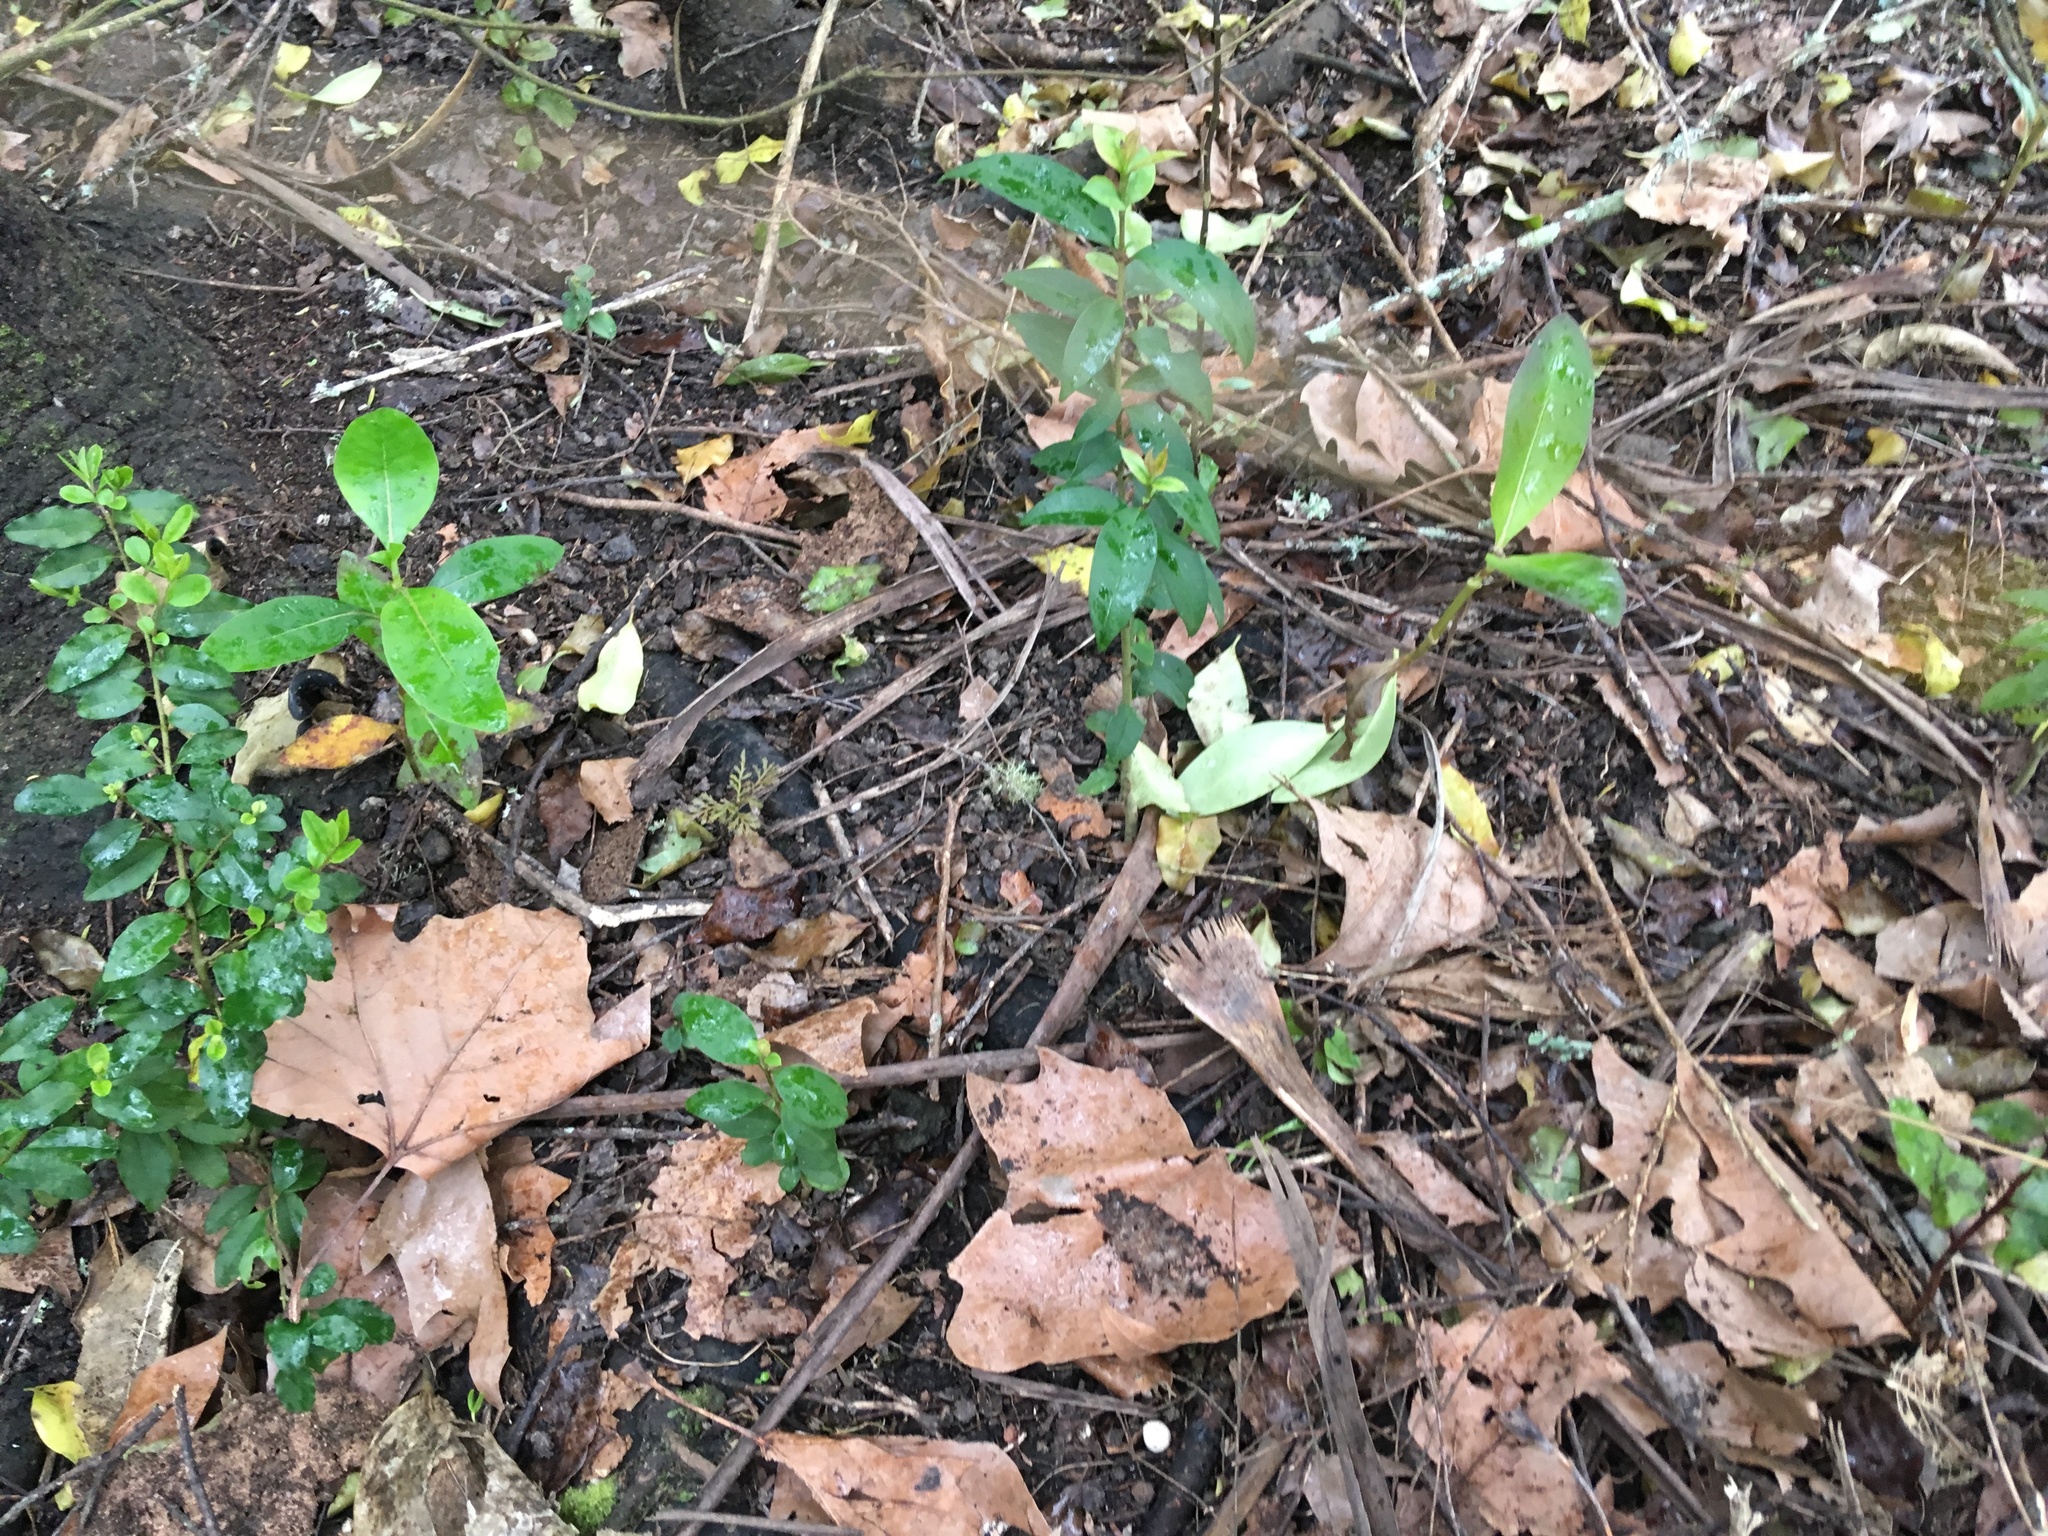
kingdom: Plantae
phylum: Tracheophyta
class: Magnoliopsida
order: Lamiales
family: Oleaceae
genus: Ligustrum
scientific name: Ligustrum lucidum
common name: Glossy privet
